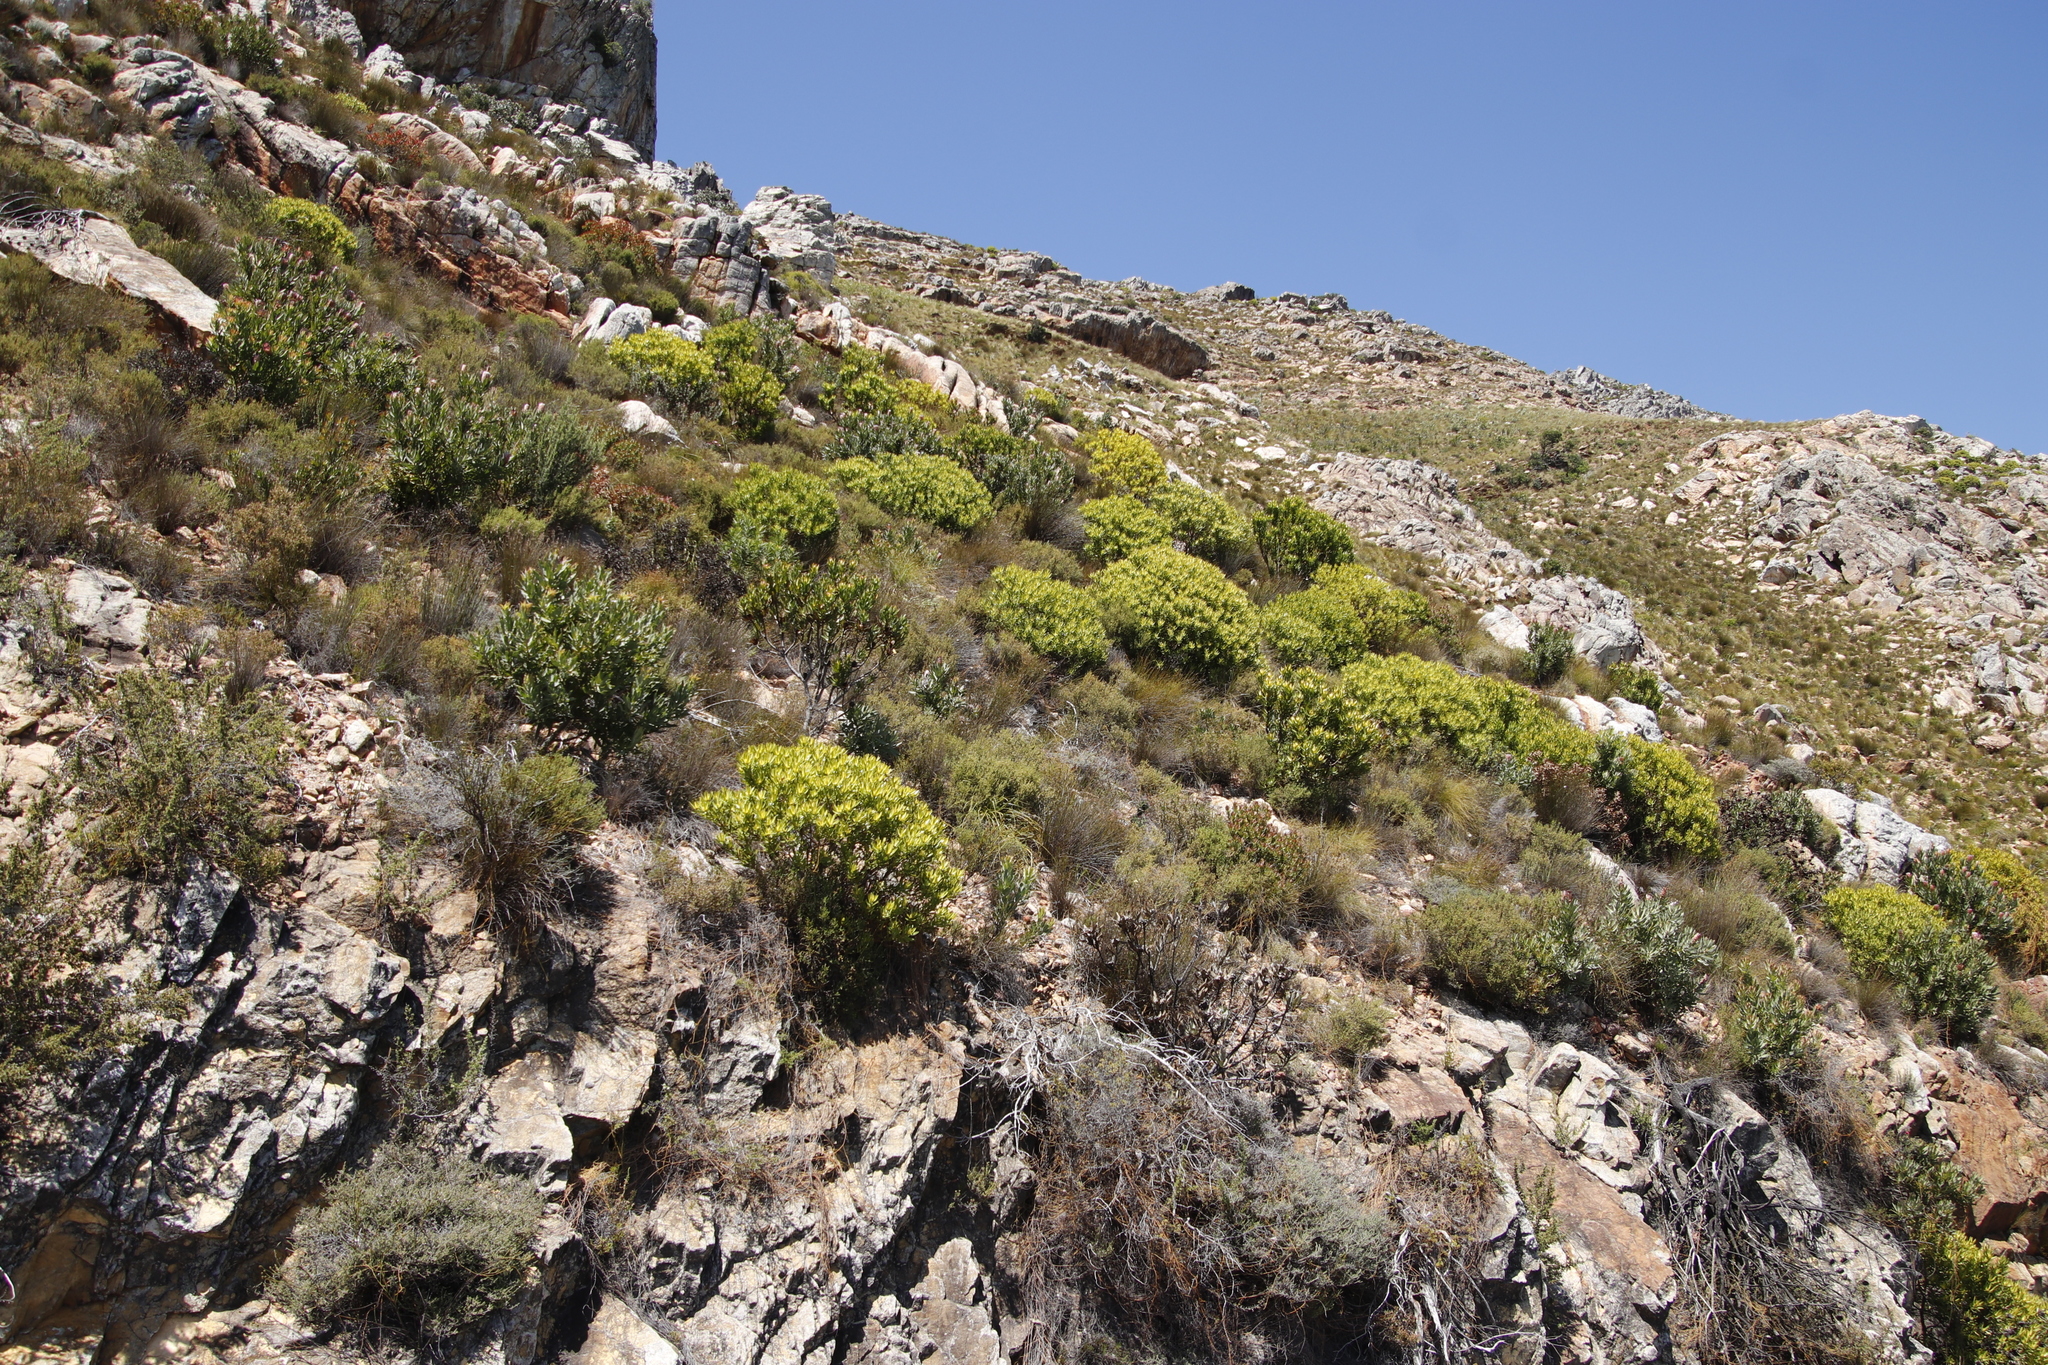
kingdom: Plantae
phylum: Tracheophyta
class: Magnoliopsida
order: Proteales
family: Proteaceae
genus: Leucadendron
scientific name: Leucadendron laureolum
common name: Golden sunshinebush
